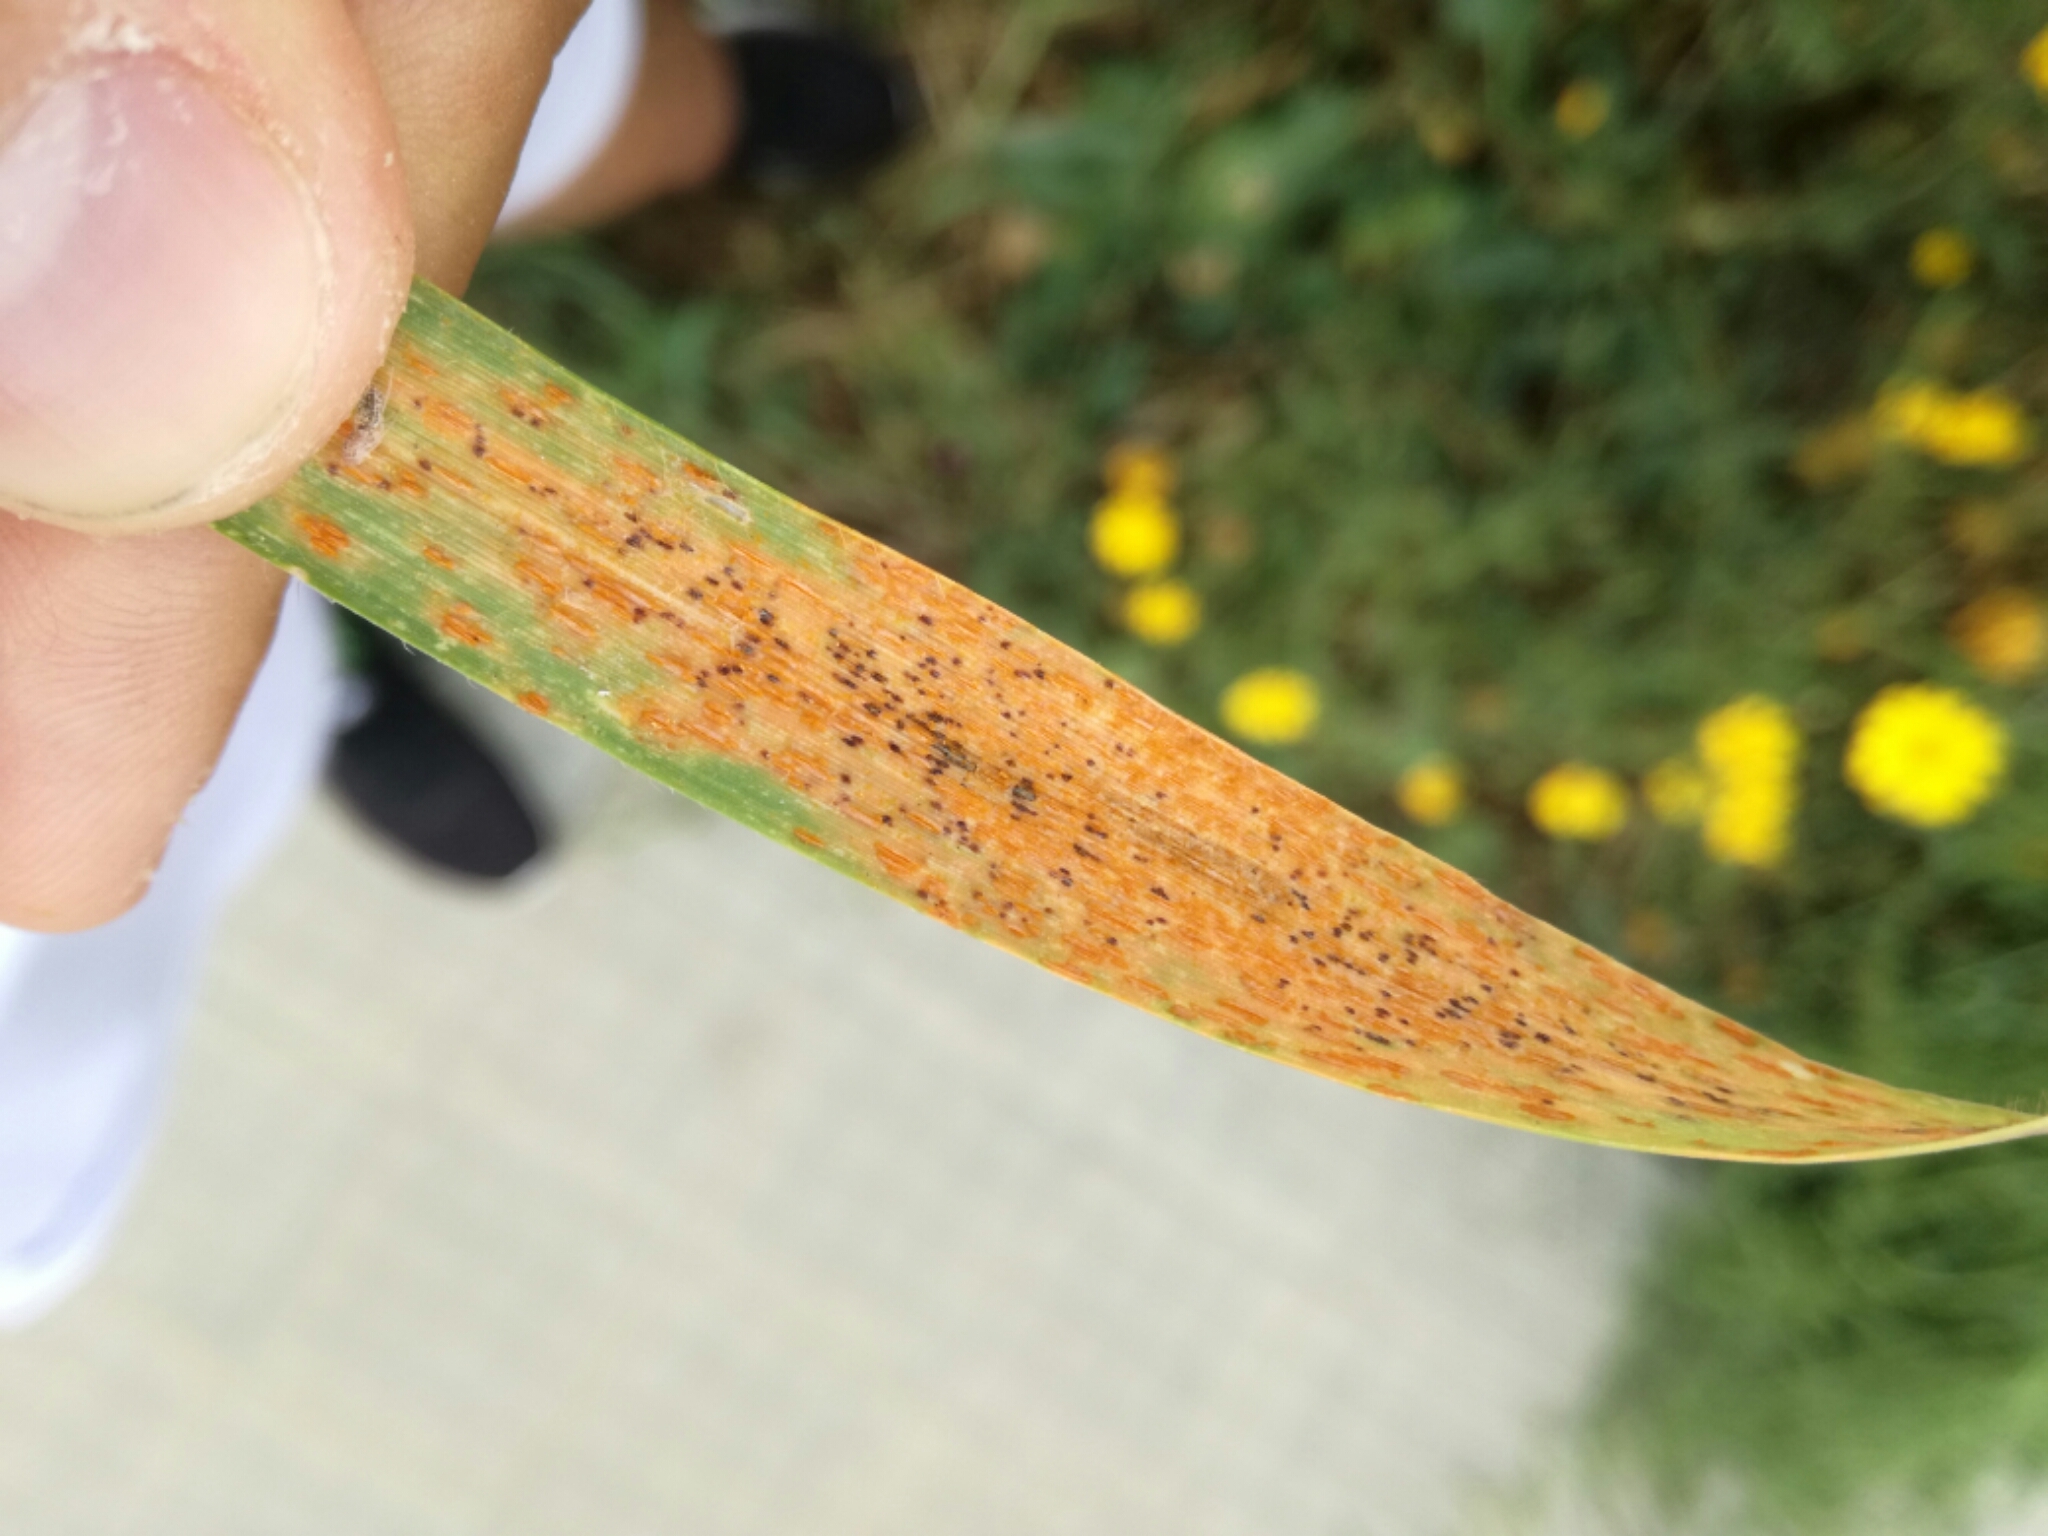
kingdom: Fungi
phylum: Basidiomycota
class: Pucciniomycetes
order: Pucciniales
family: Pucciniaceae
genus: Puccinia
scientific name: Puccinia coronata
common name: Crown rust
